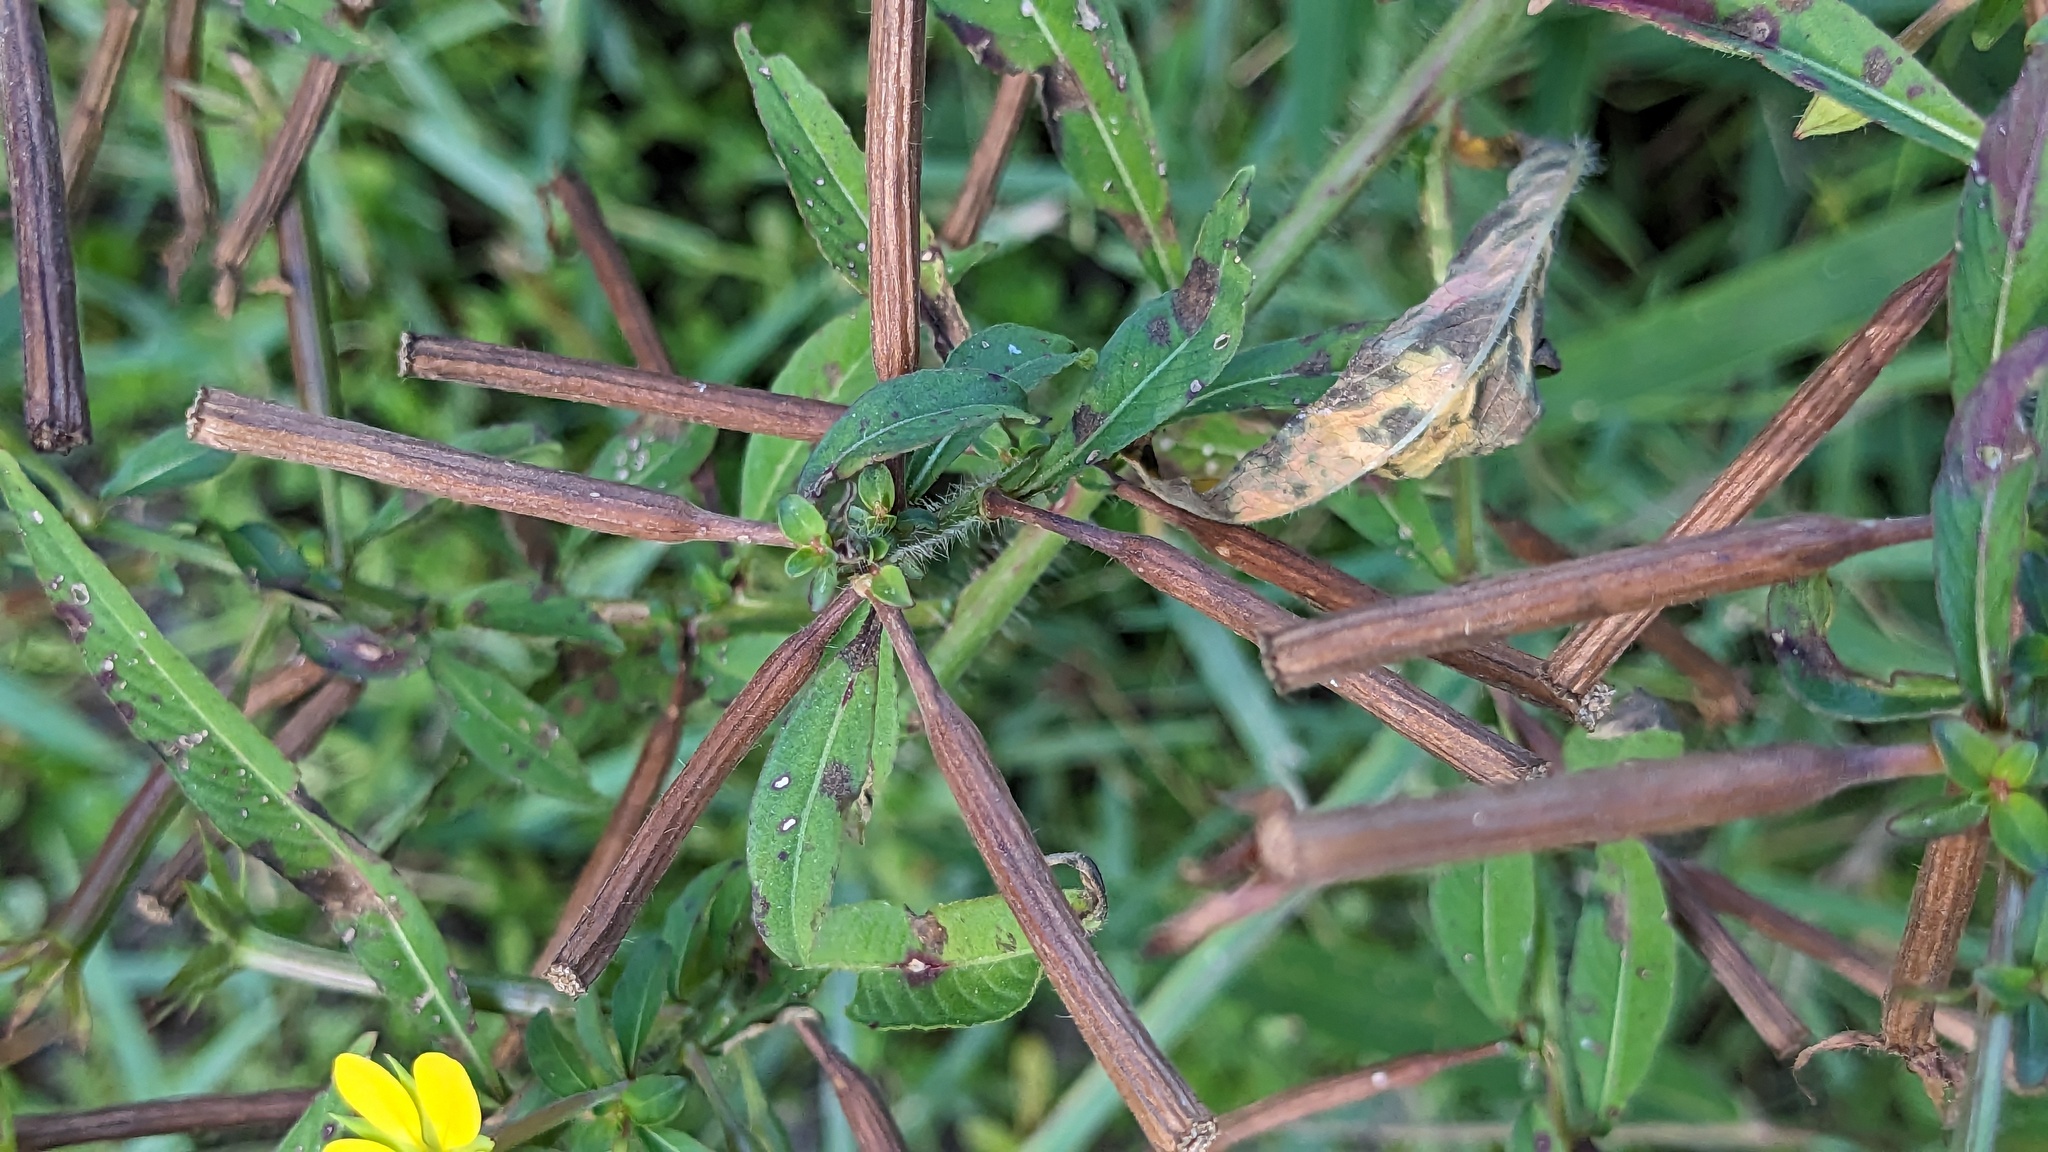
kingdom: Plantae
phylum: Tracheophyta
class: Magnoliopsida
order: Myrtales
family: Onagraceae
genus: Ludwigia
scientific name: Ludwigia leptocarpa
